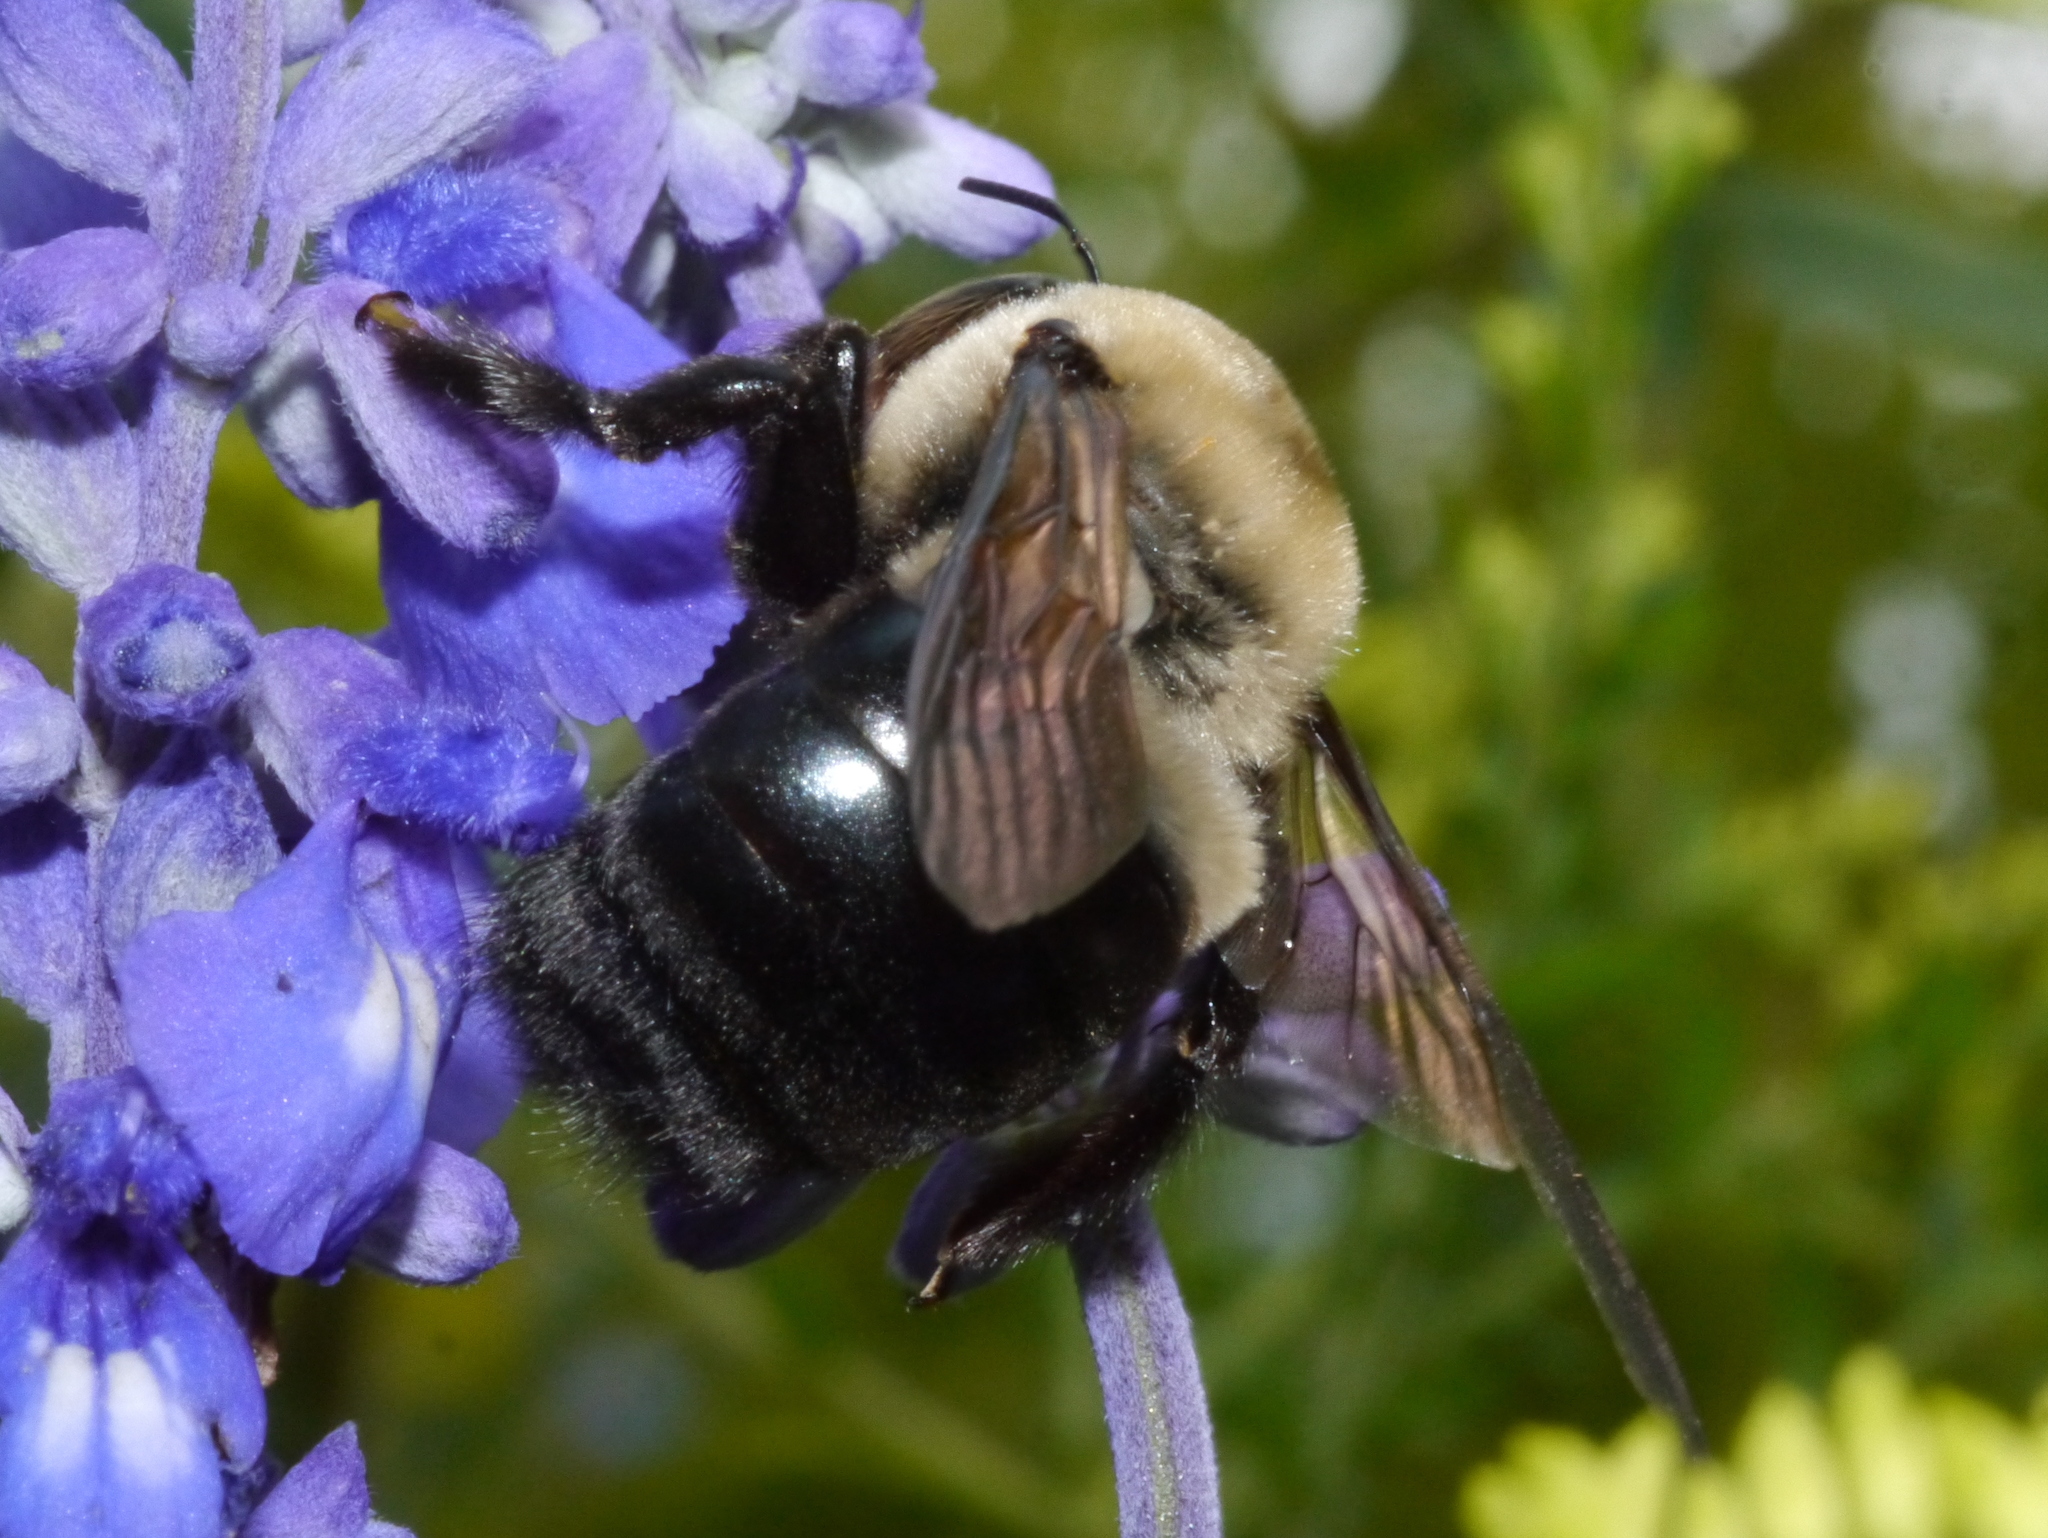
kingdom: Animalia
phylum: Arthropoda
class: Insecta
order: Hymenoptera
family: Apidae
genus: Xylocopa
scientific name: Xylocopa virginica
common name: Carpenter bee
